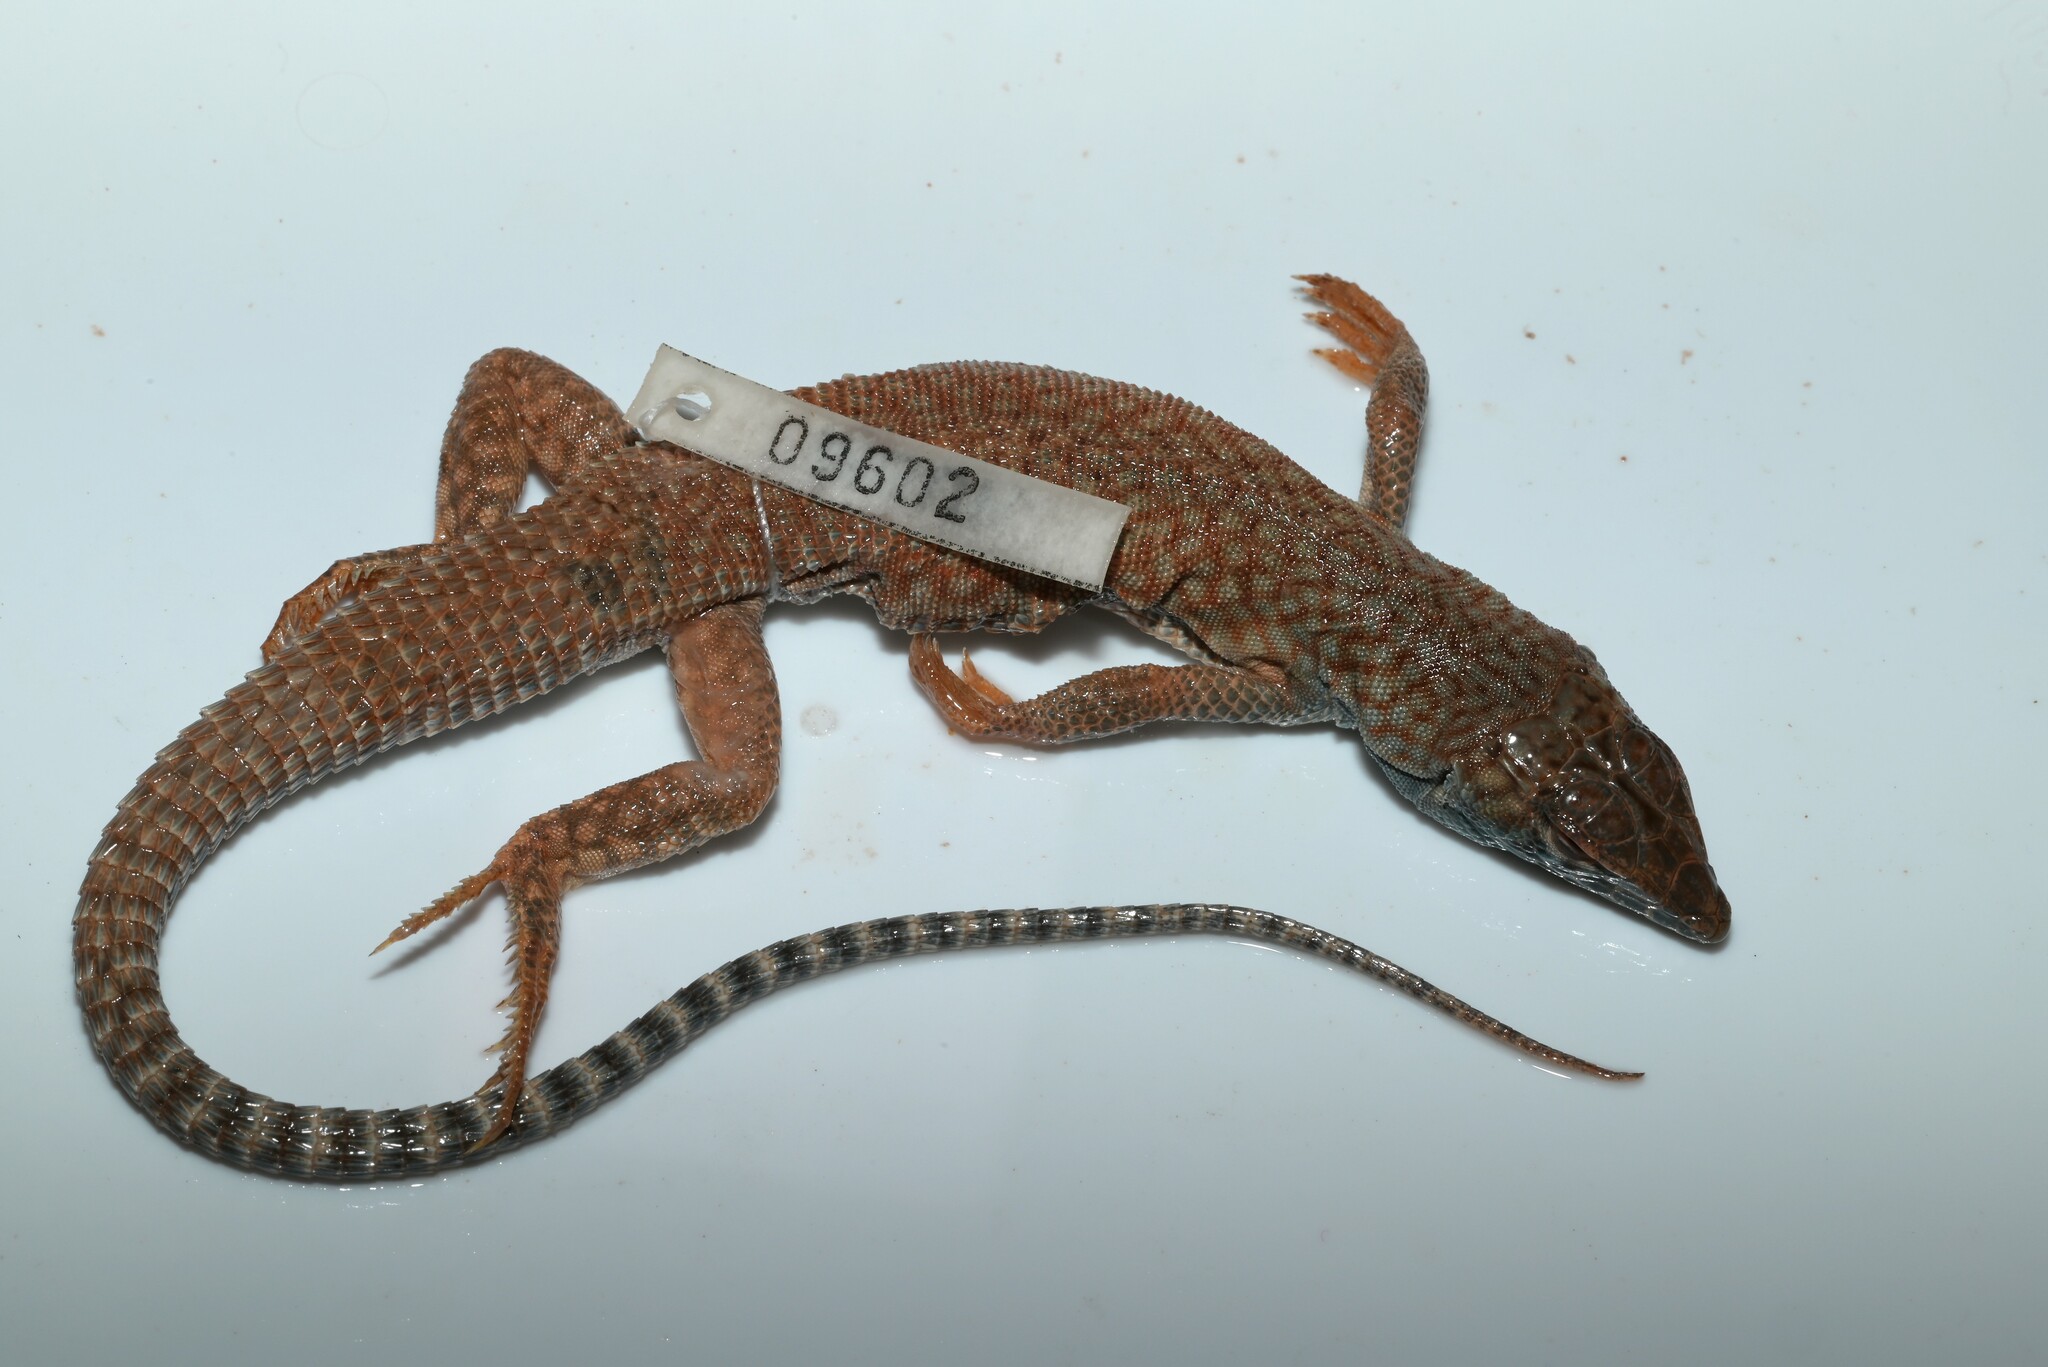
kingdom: Animalia
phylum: Chordata
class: Squamata
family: Lacertidae
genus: Acanthodactylus
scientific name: Acanthodactylus schmidti
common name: Schmidt's fringe-toed lizard
